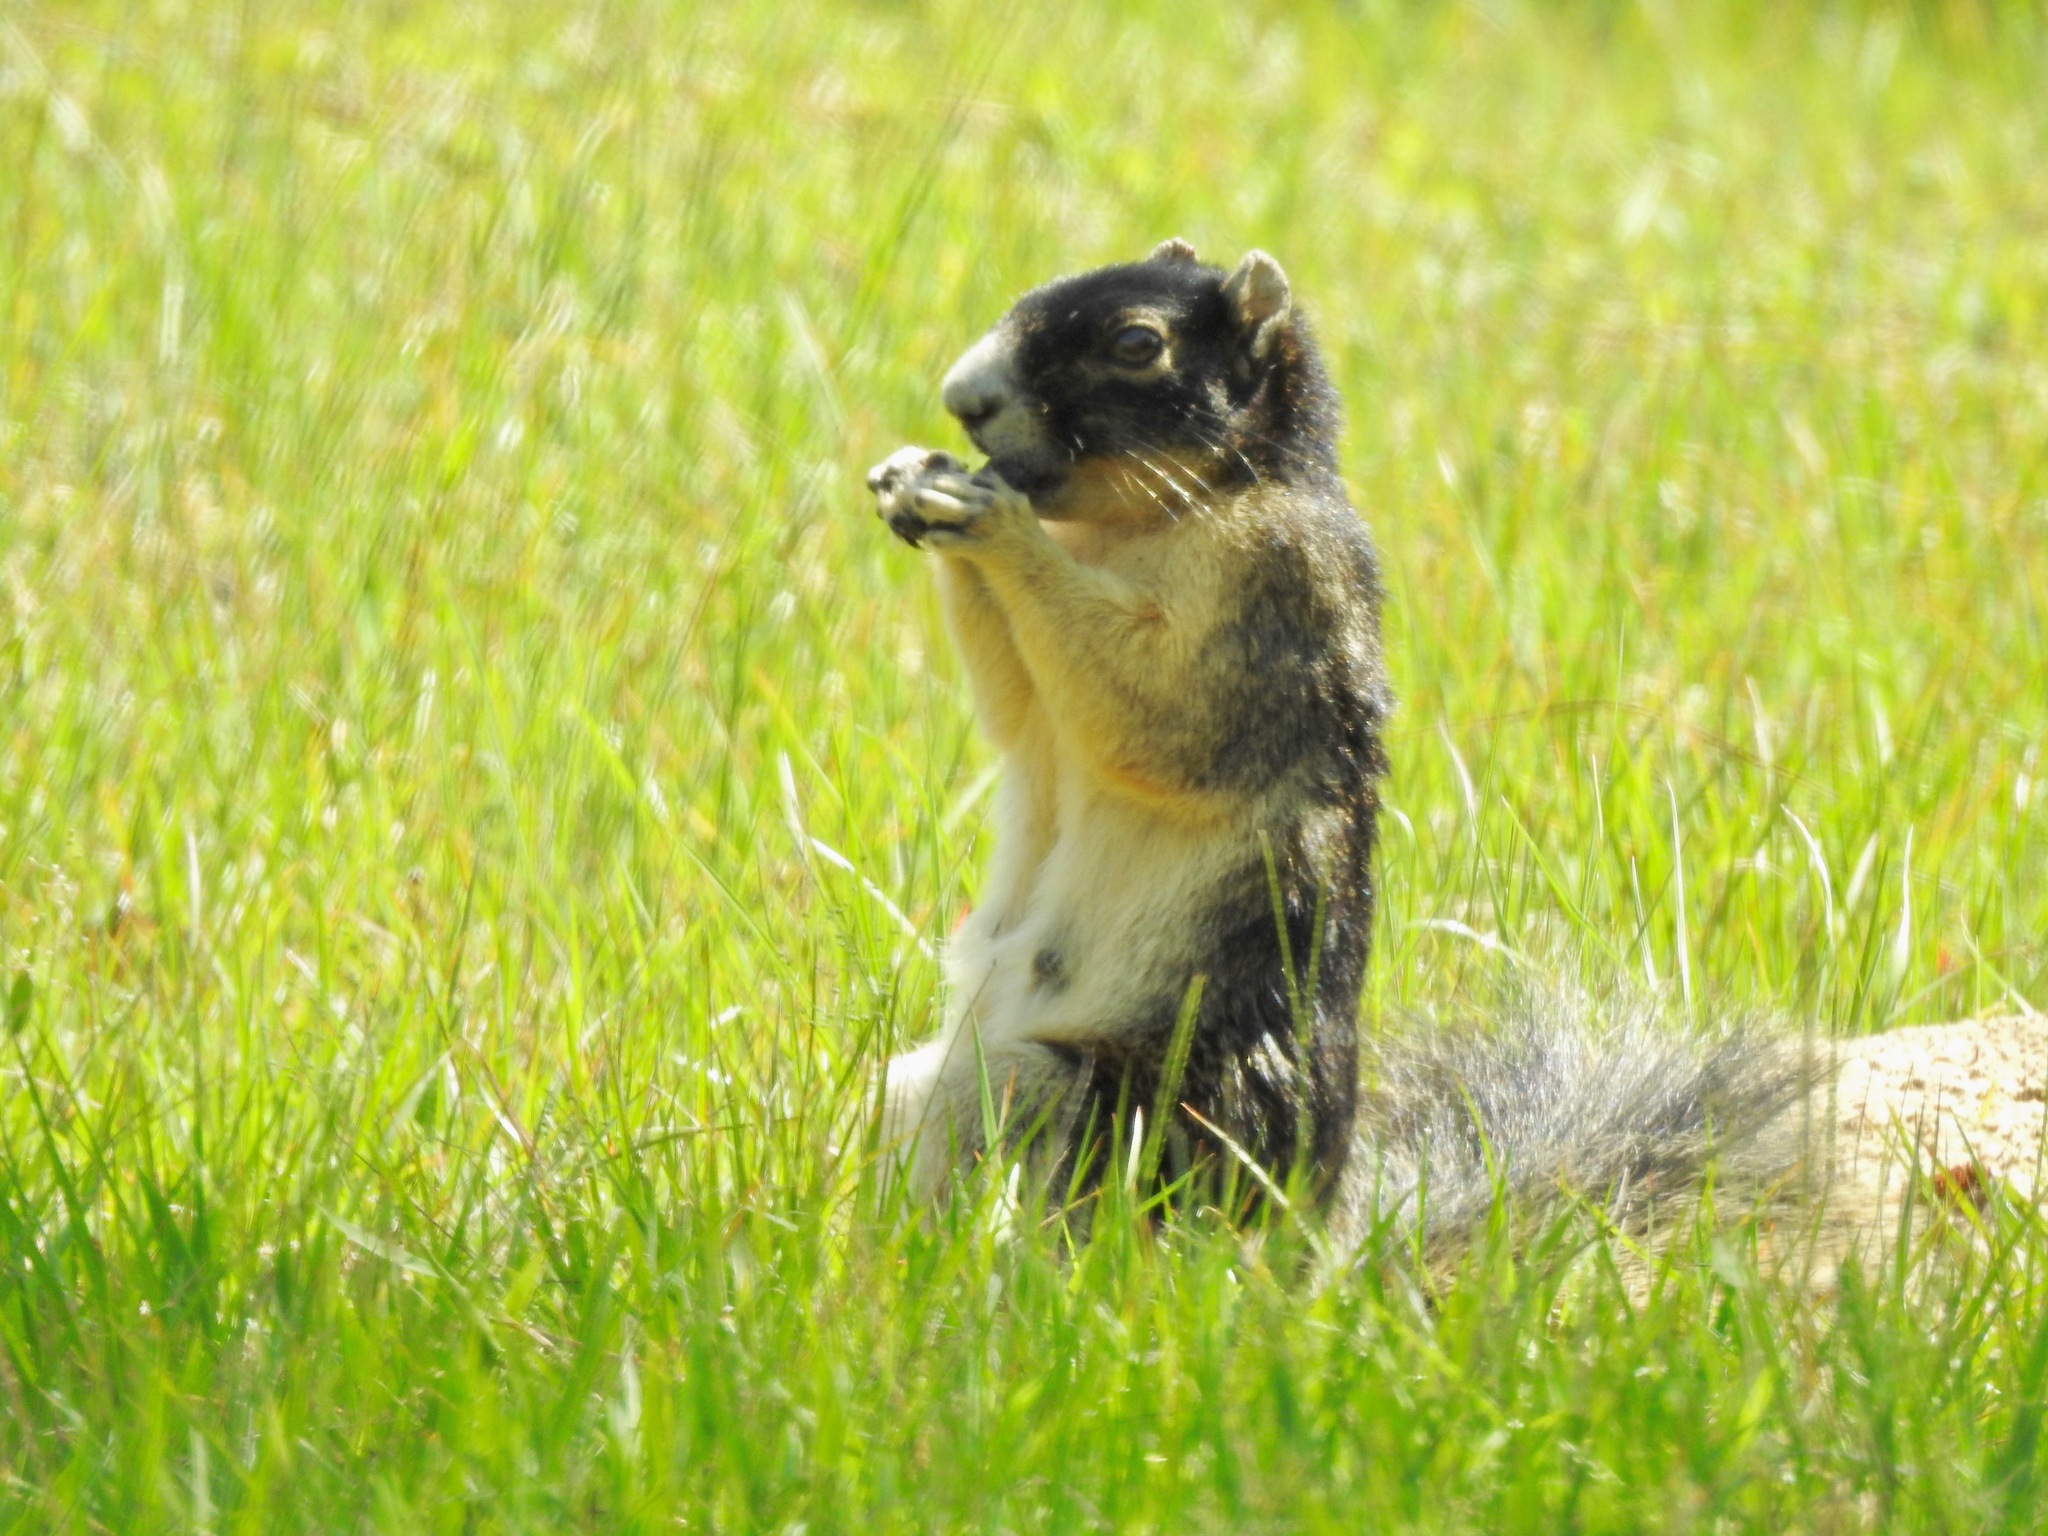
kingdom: Animalia
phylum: Chordata
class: Mammalia
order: Rodentia
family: Sciuridae
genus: Sciurus
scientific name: Sciurus niger
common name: Fox squirrel
